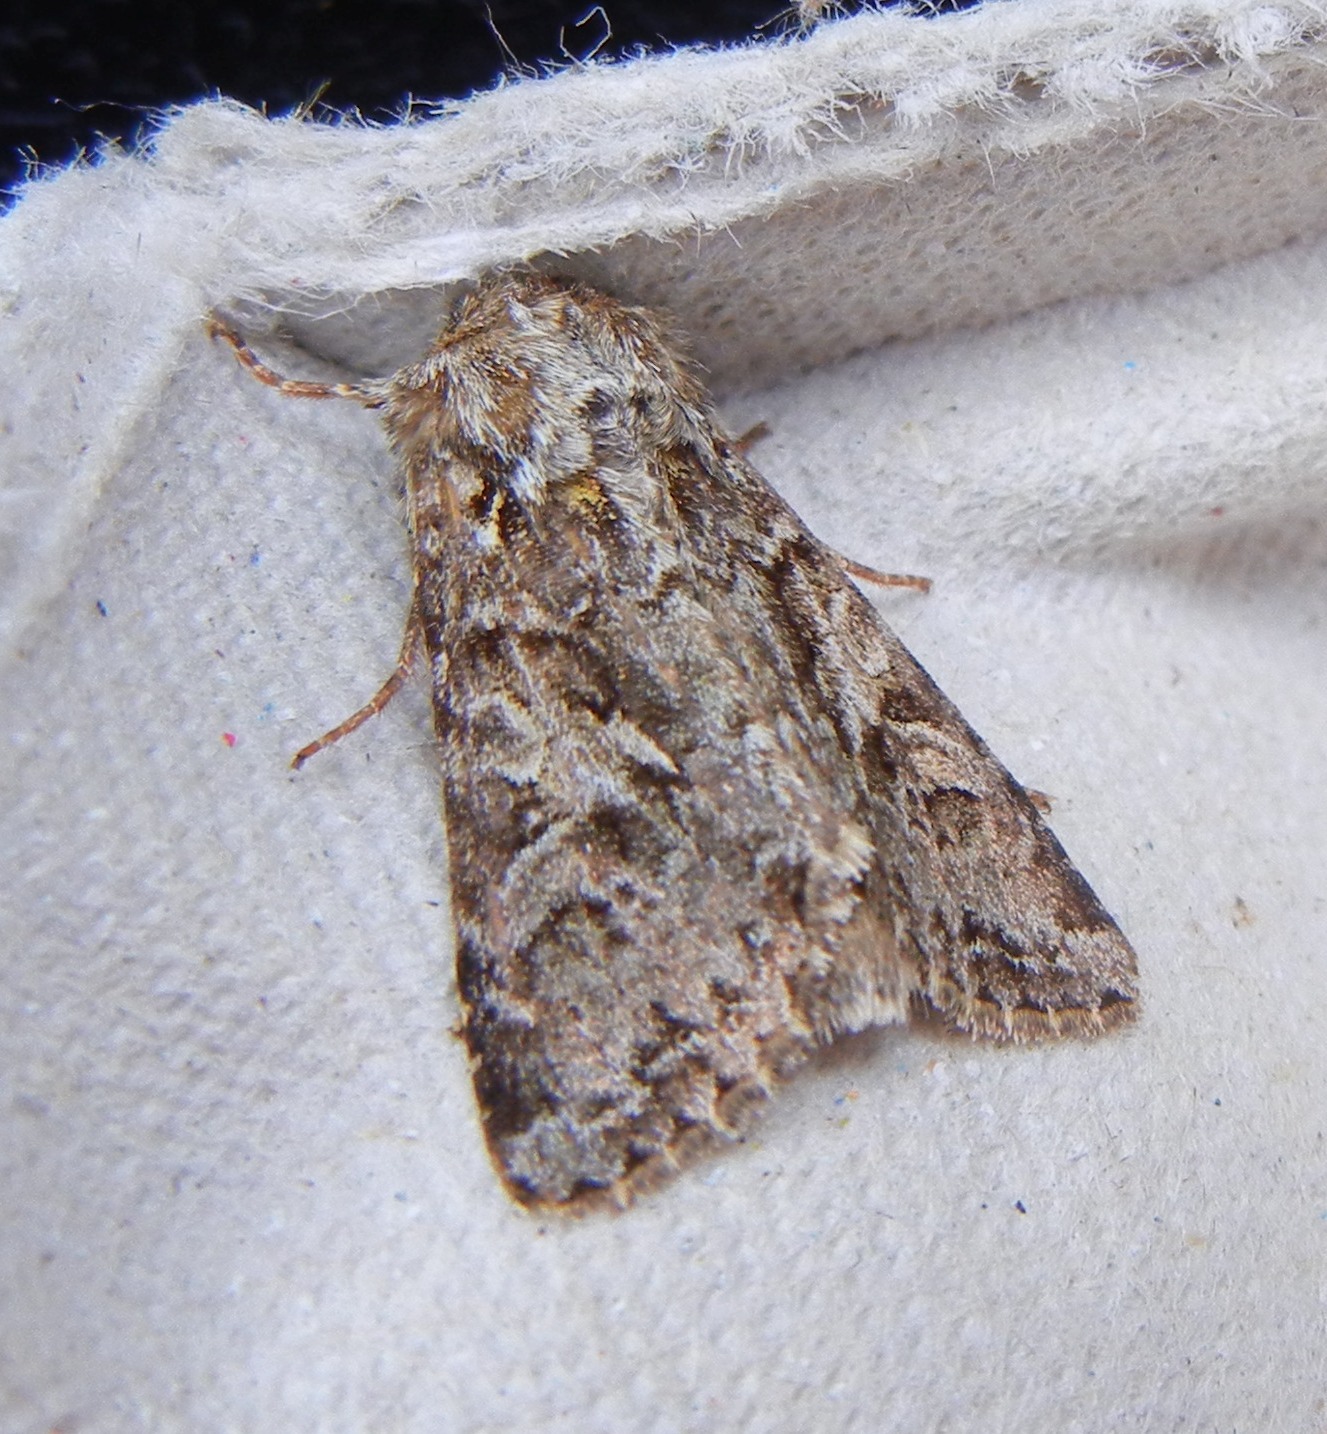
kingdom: Animalia
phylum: Arthropoda
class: Insecta
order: Lepidoptera
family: Noctuidae
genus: Hada
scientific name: Hada plebeja
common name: Shears
